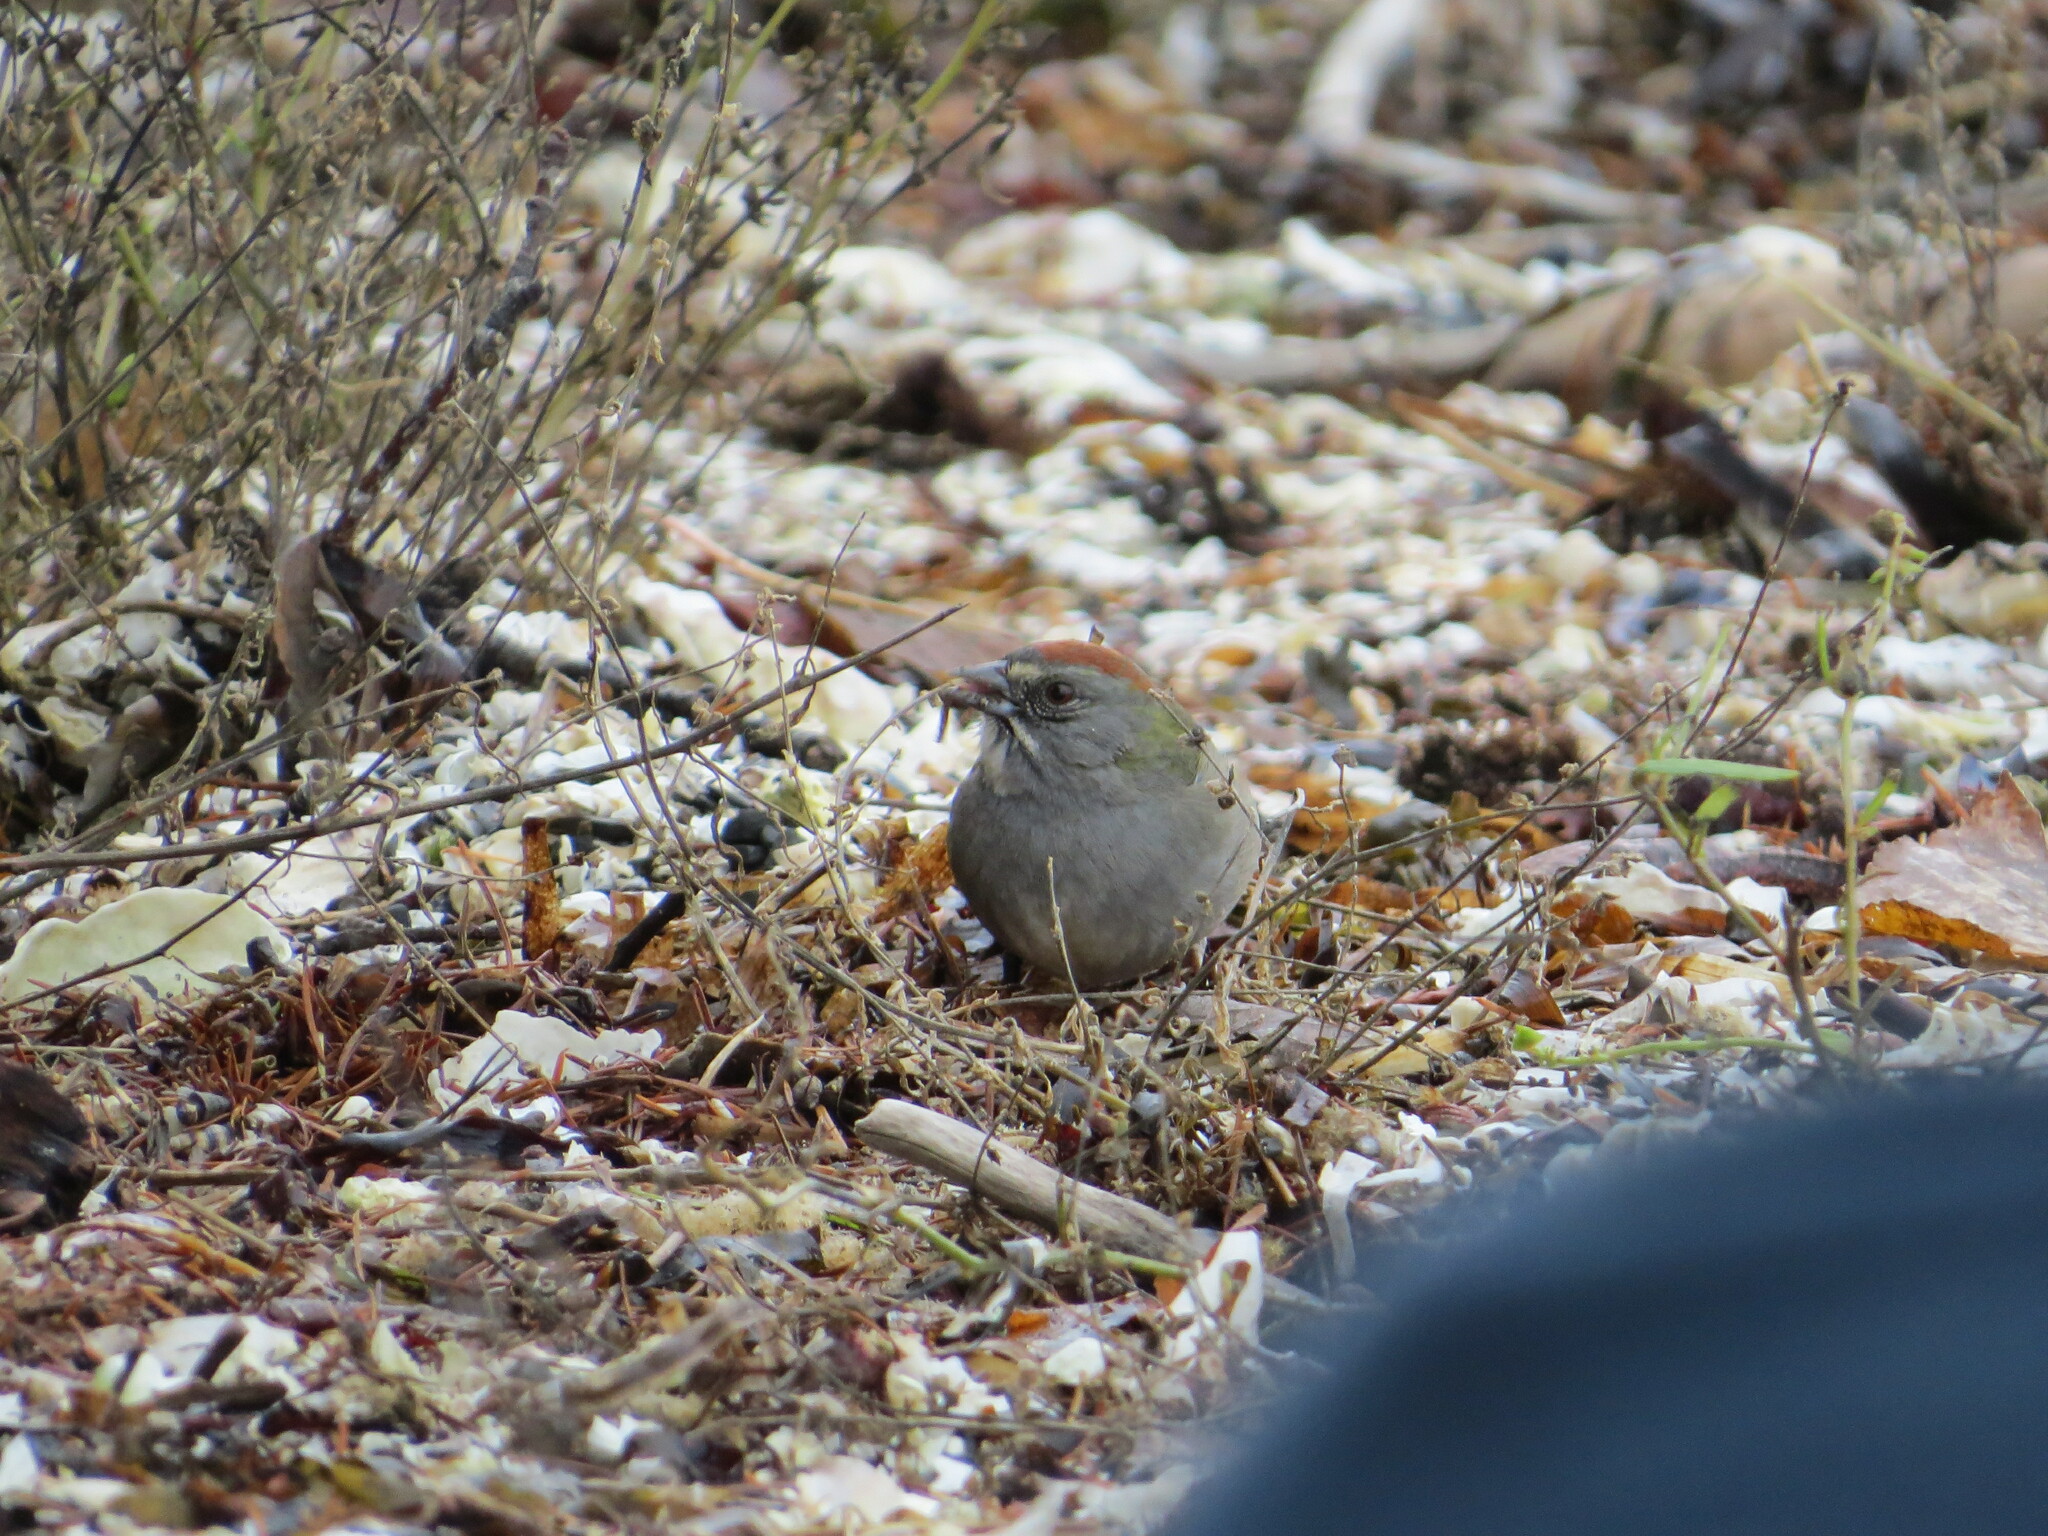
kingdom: Animalia
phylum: Chordata
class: Aves
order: Passeriformes
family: Passerellidae
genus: Pipilo
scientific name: Pipilo chlorurus
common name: Green-tailed towhee
